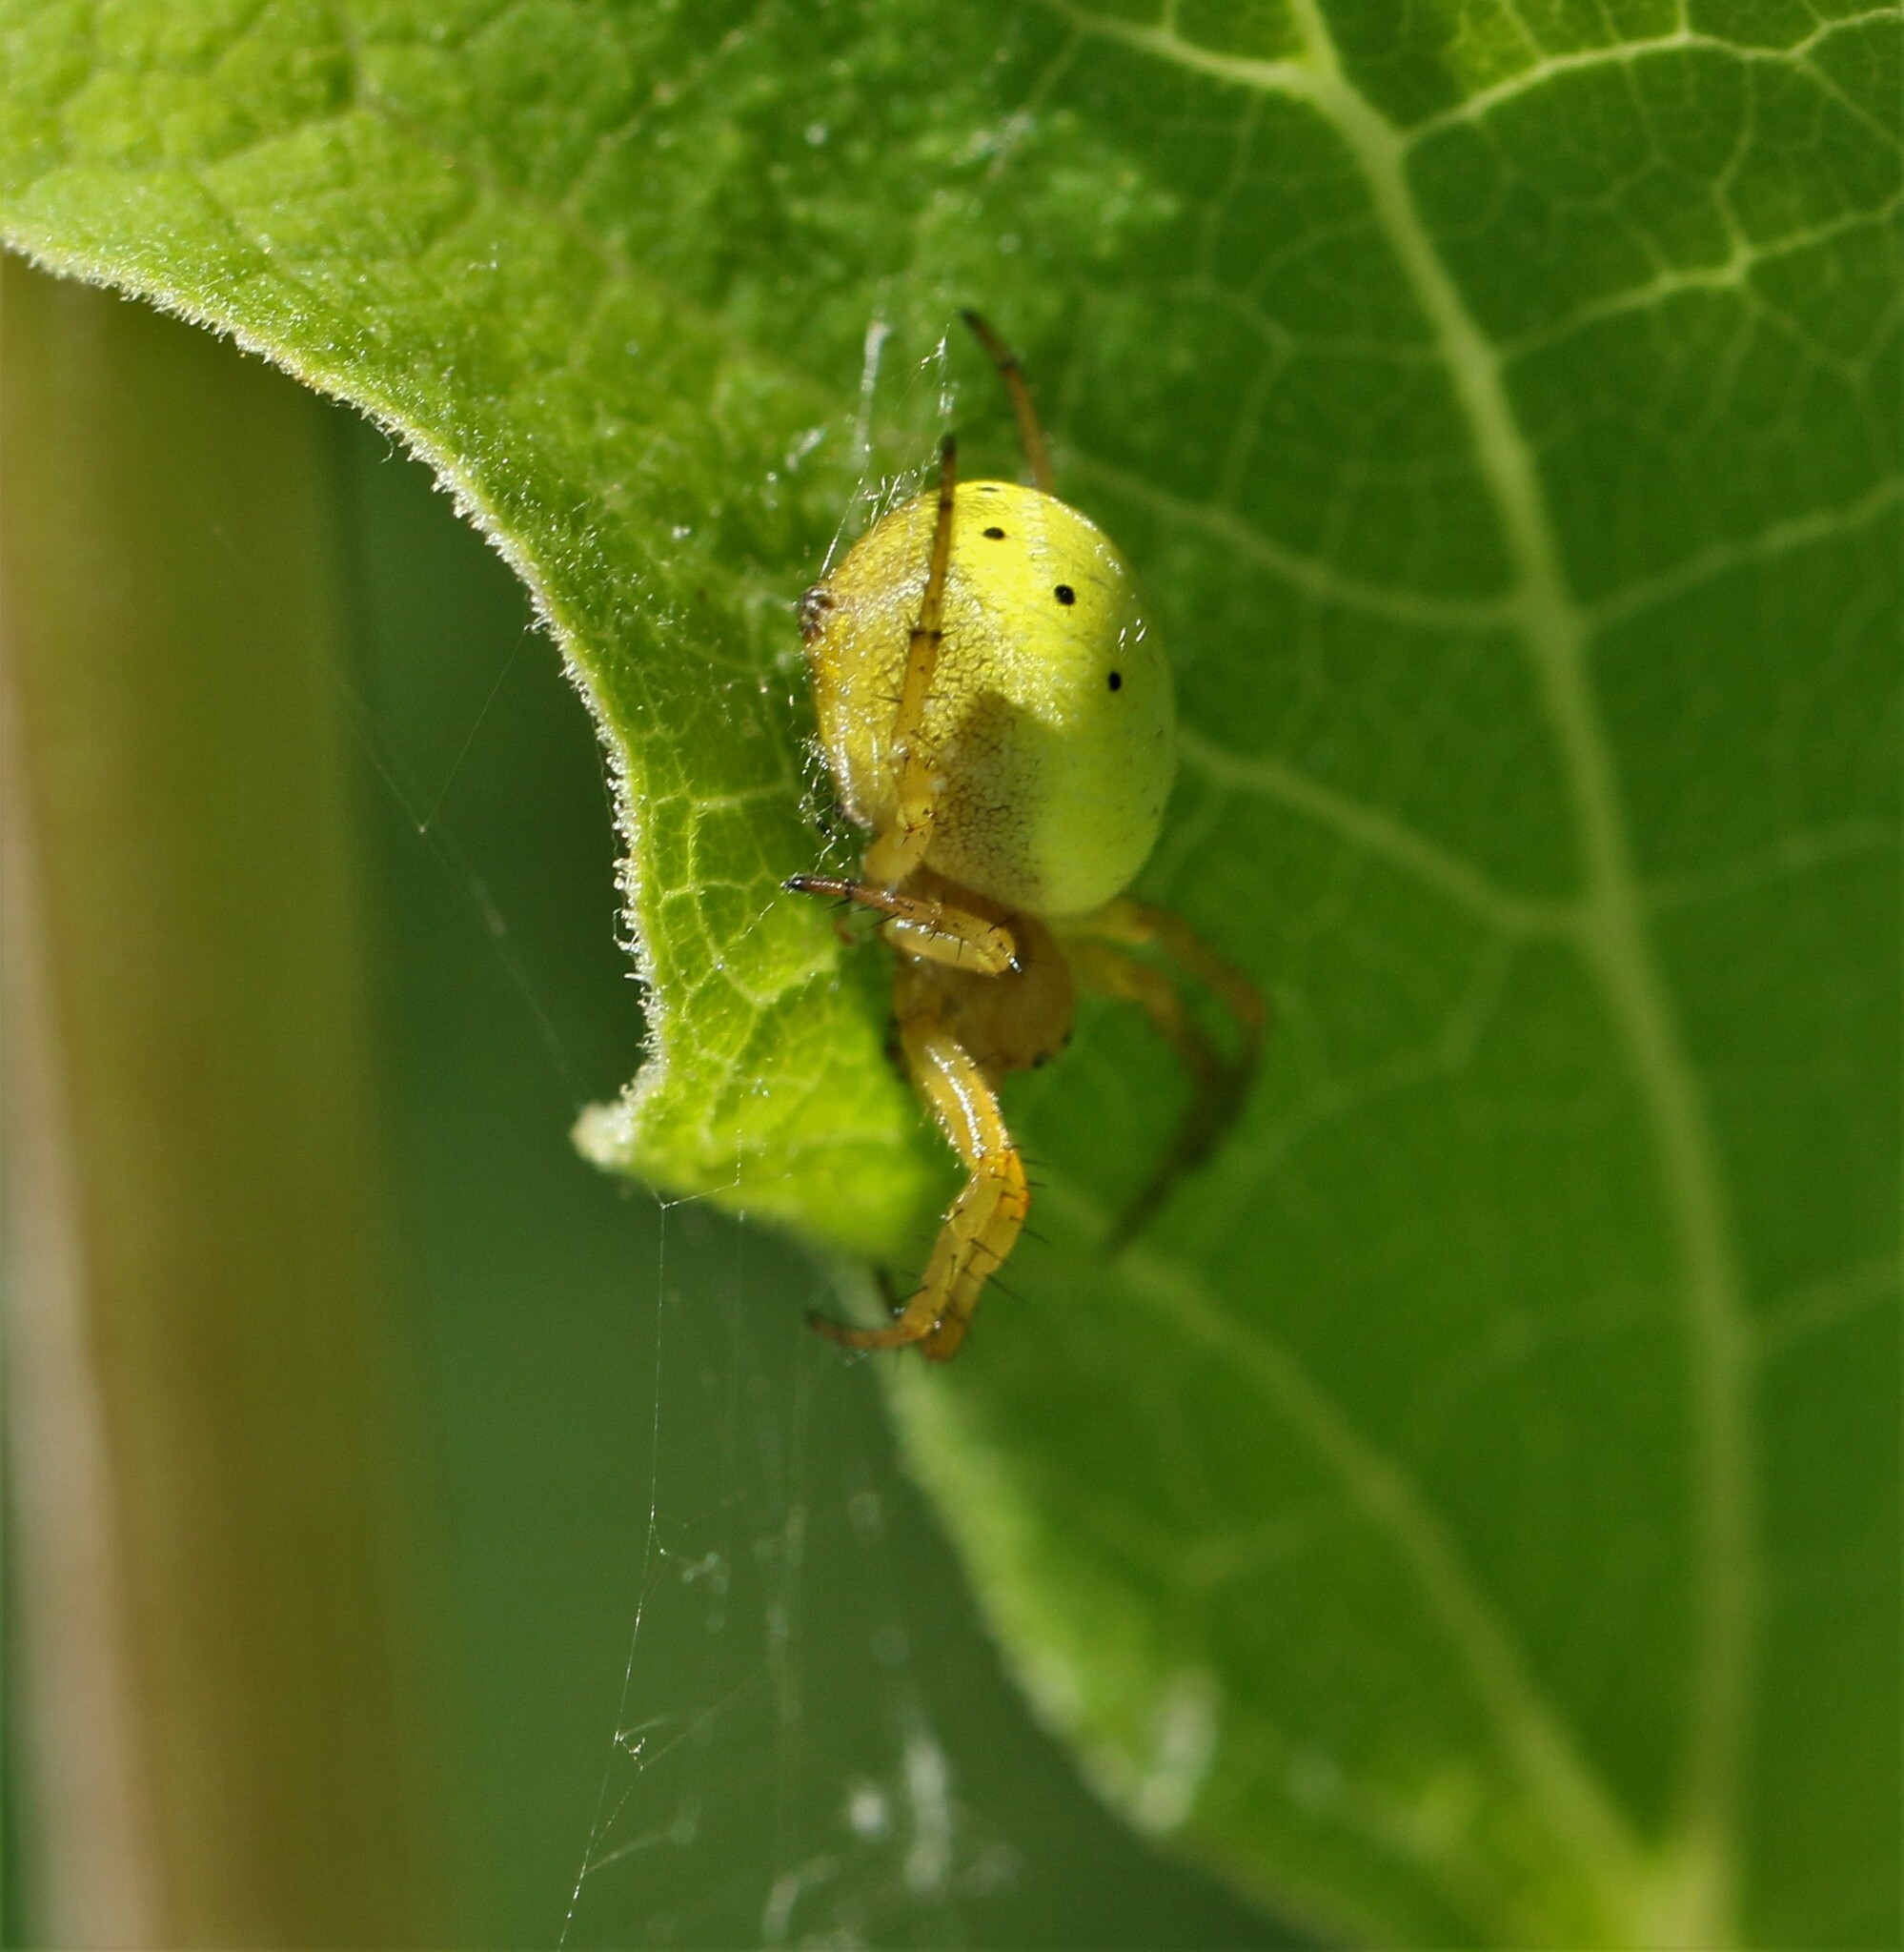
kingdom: Animalia
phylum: Arthropoda
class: Arachnida
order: Araneae
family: Araneidae
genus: Araniella
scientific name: Araniella displicata
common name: Sixspotted orb weaver
